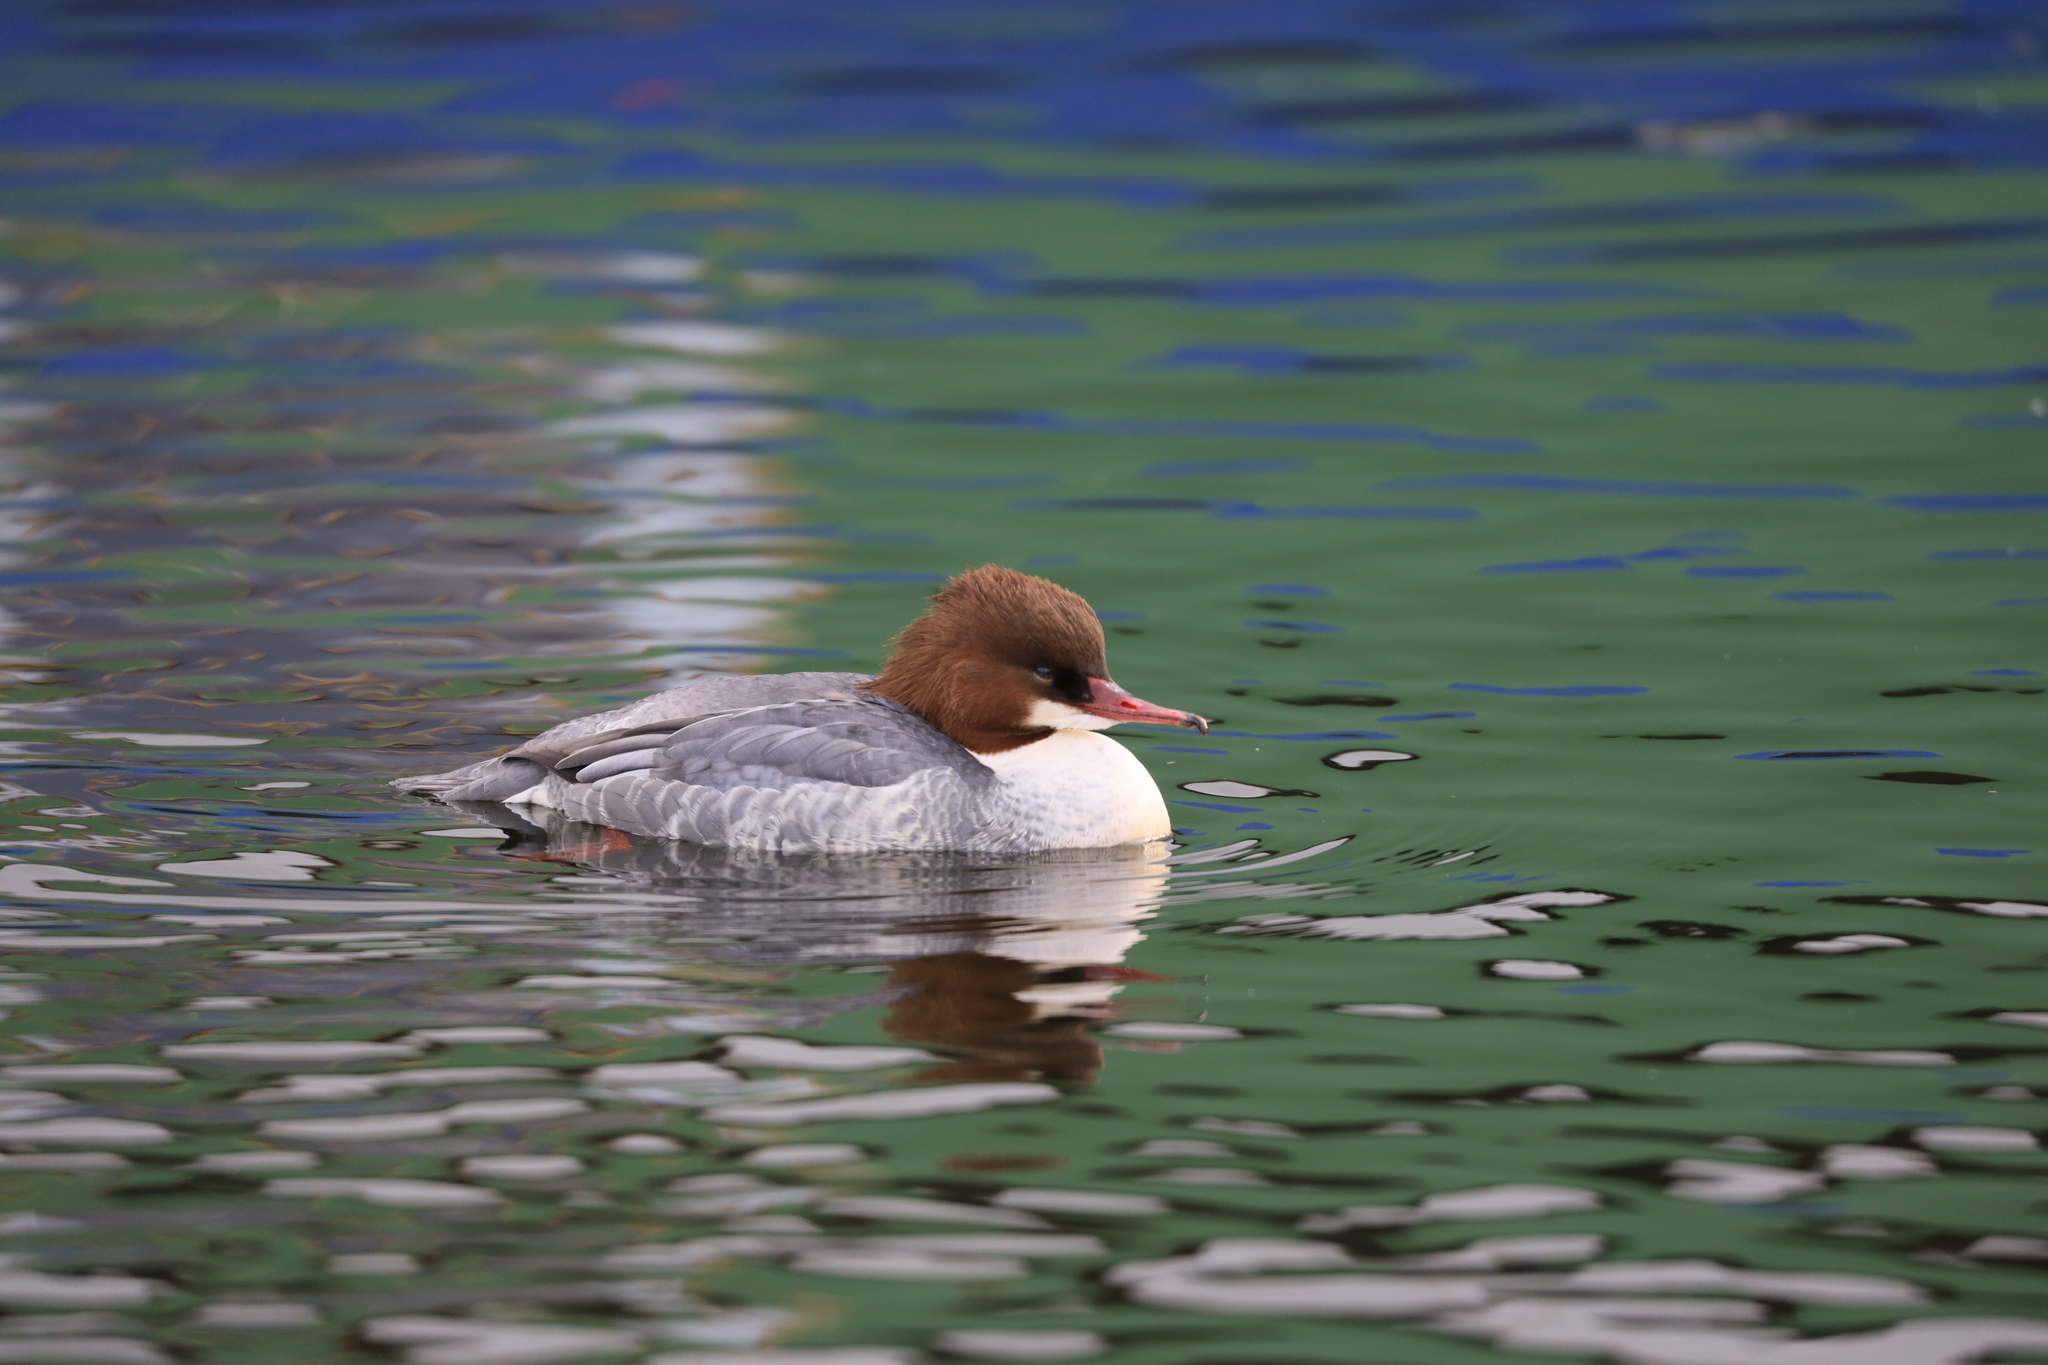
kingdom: Animalia
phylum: Chordata
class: Aves
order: Anseriformes
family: Anatidae
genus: Mergus
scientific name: Mergus merganser
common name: Common merganser
